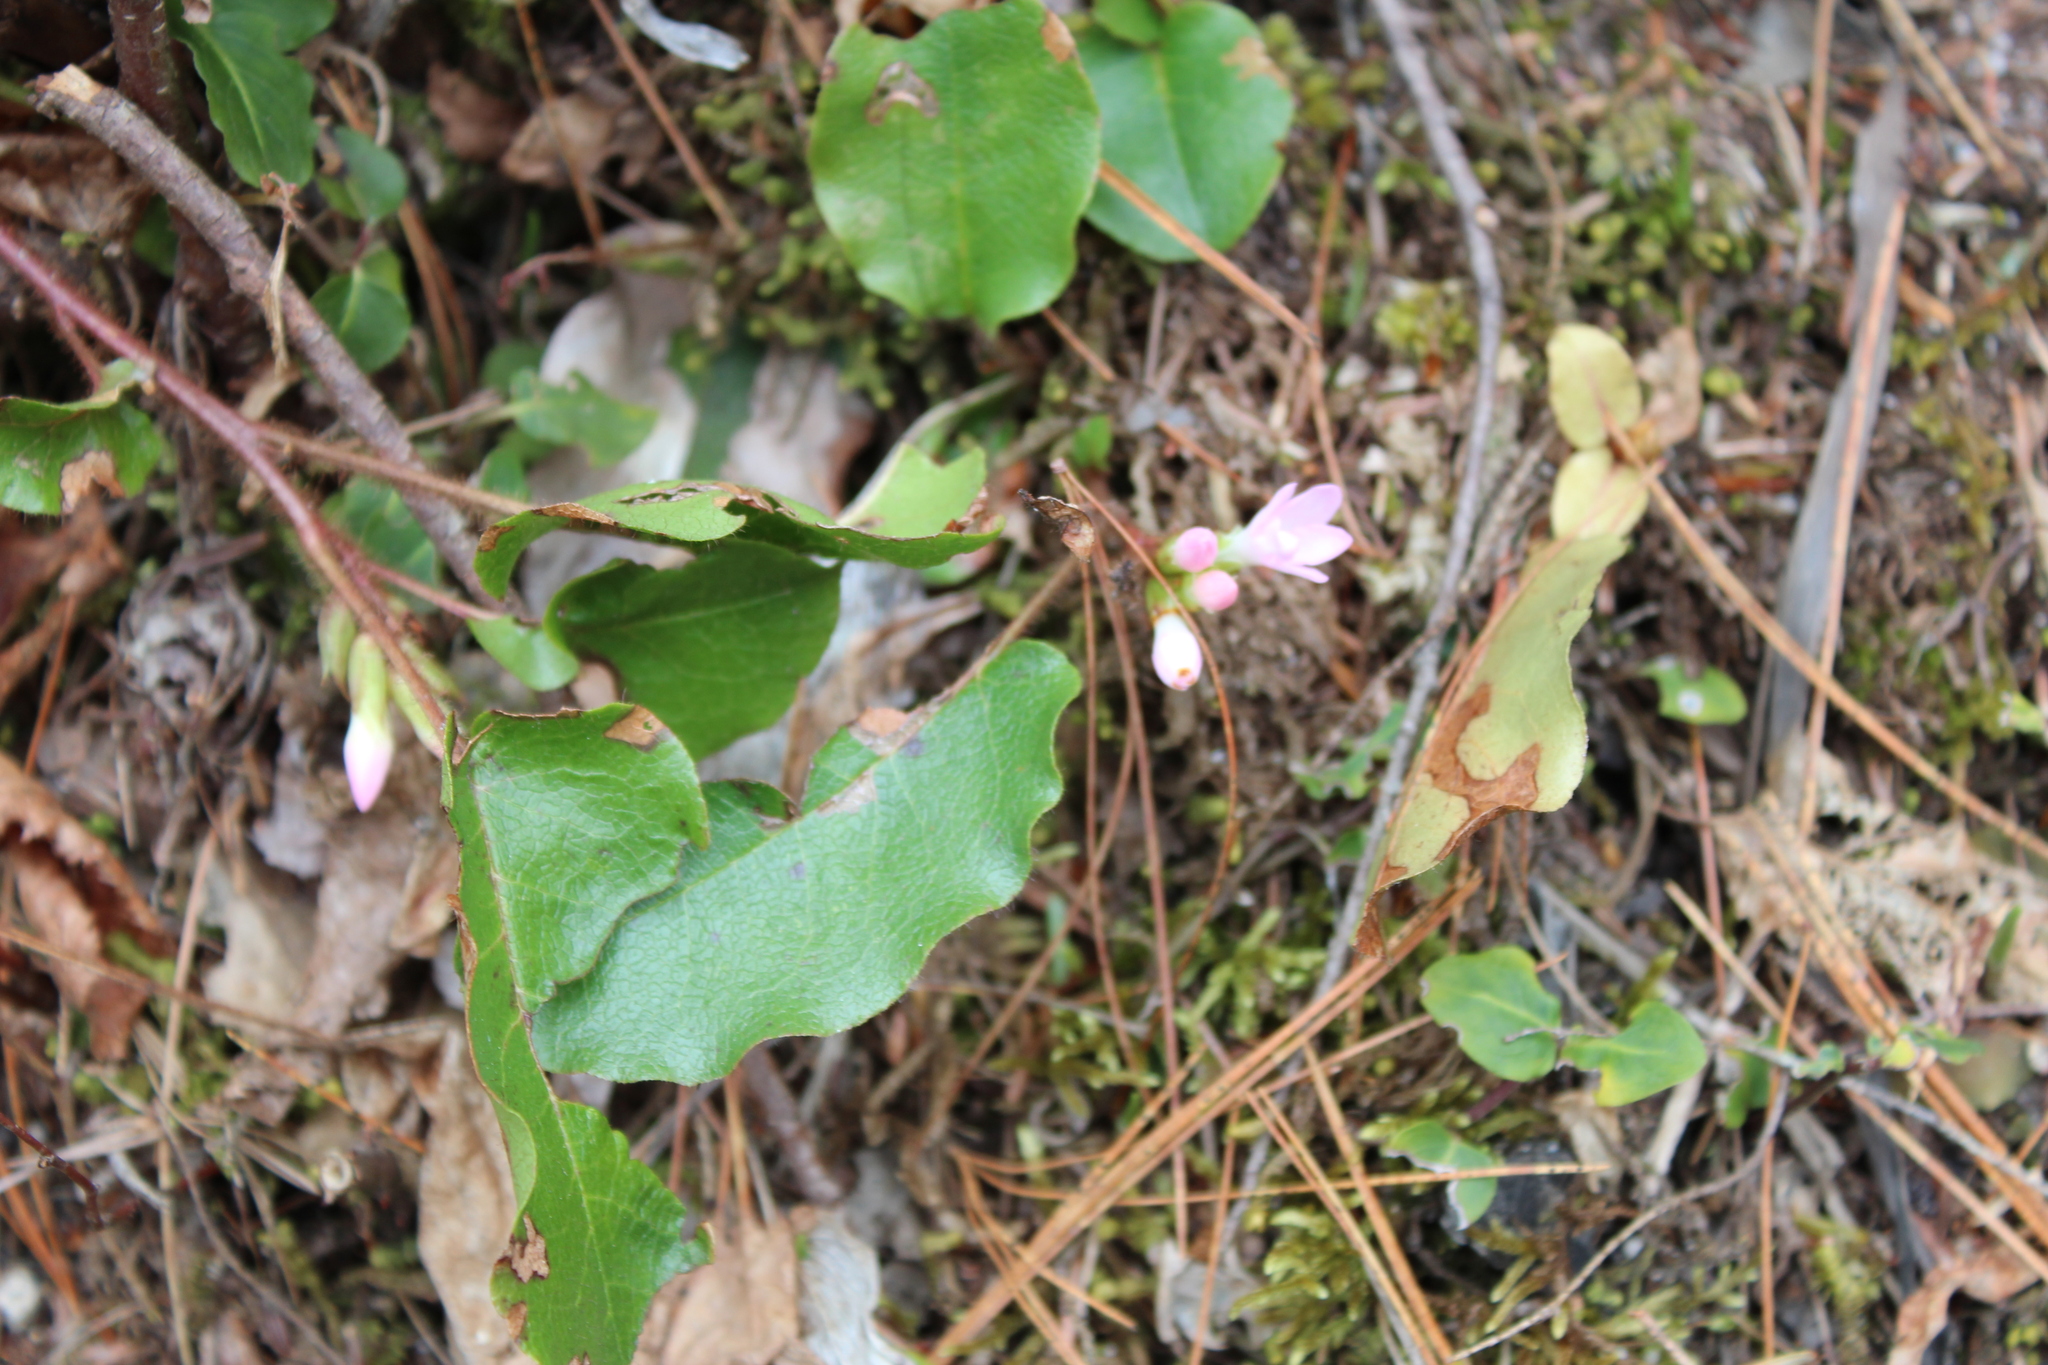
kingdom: Plantae
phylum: Tracheophyta
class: Magnoliopsida
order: Ericales
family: Ericaceae
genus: Epigaea
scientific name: Epigaea repens
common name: Gravelroot
